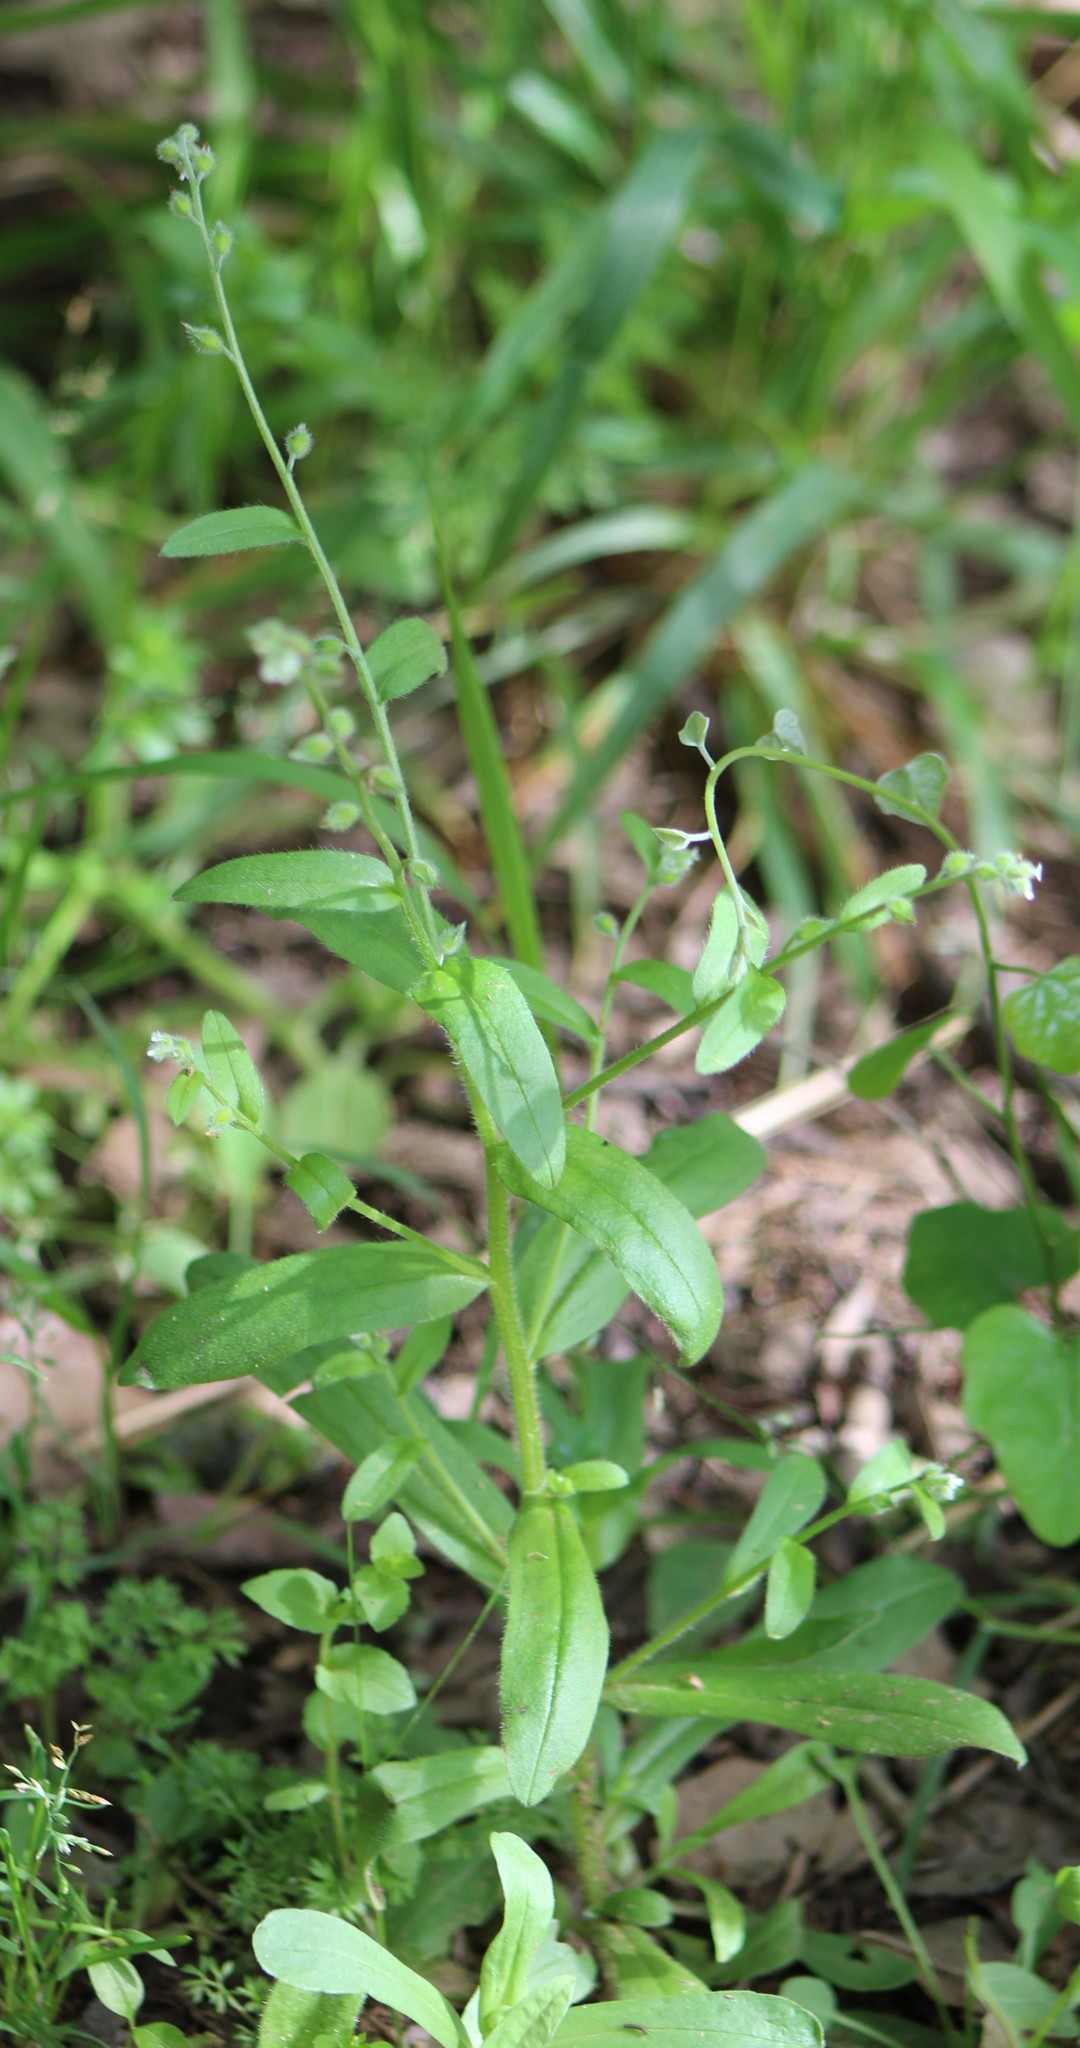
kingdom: Plantae
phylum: Tracheophyta
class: Magnoliopsida
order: Boraginales
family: Boraginaceae
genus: Myosotis
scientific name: Myosotis macrosperma
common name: Large-seed forget-me-not
